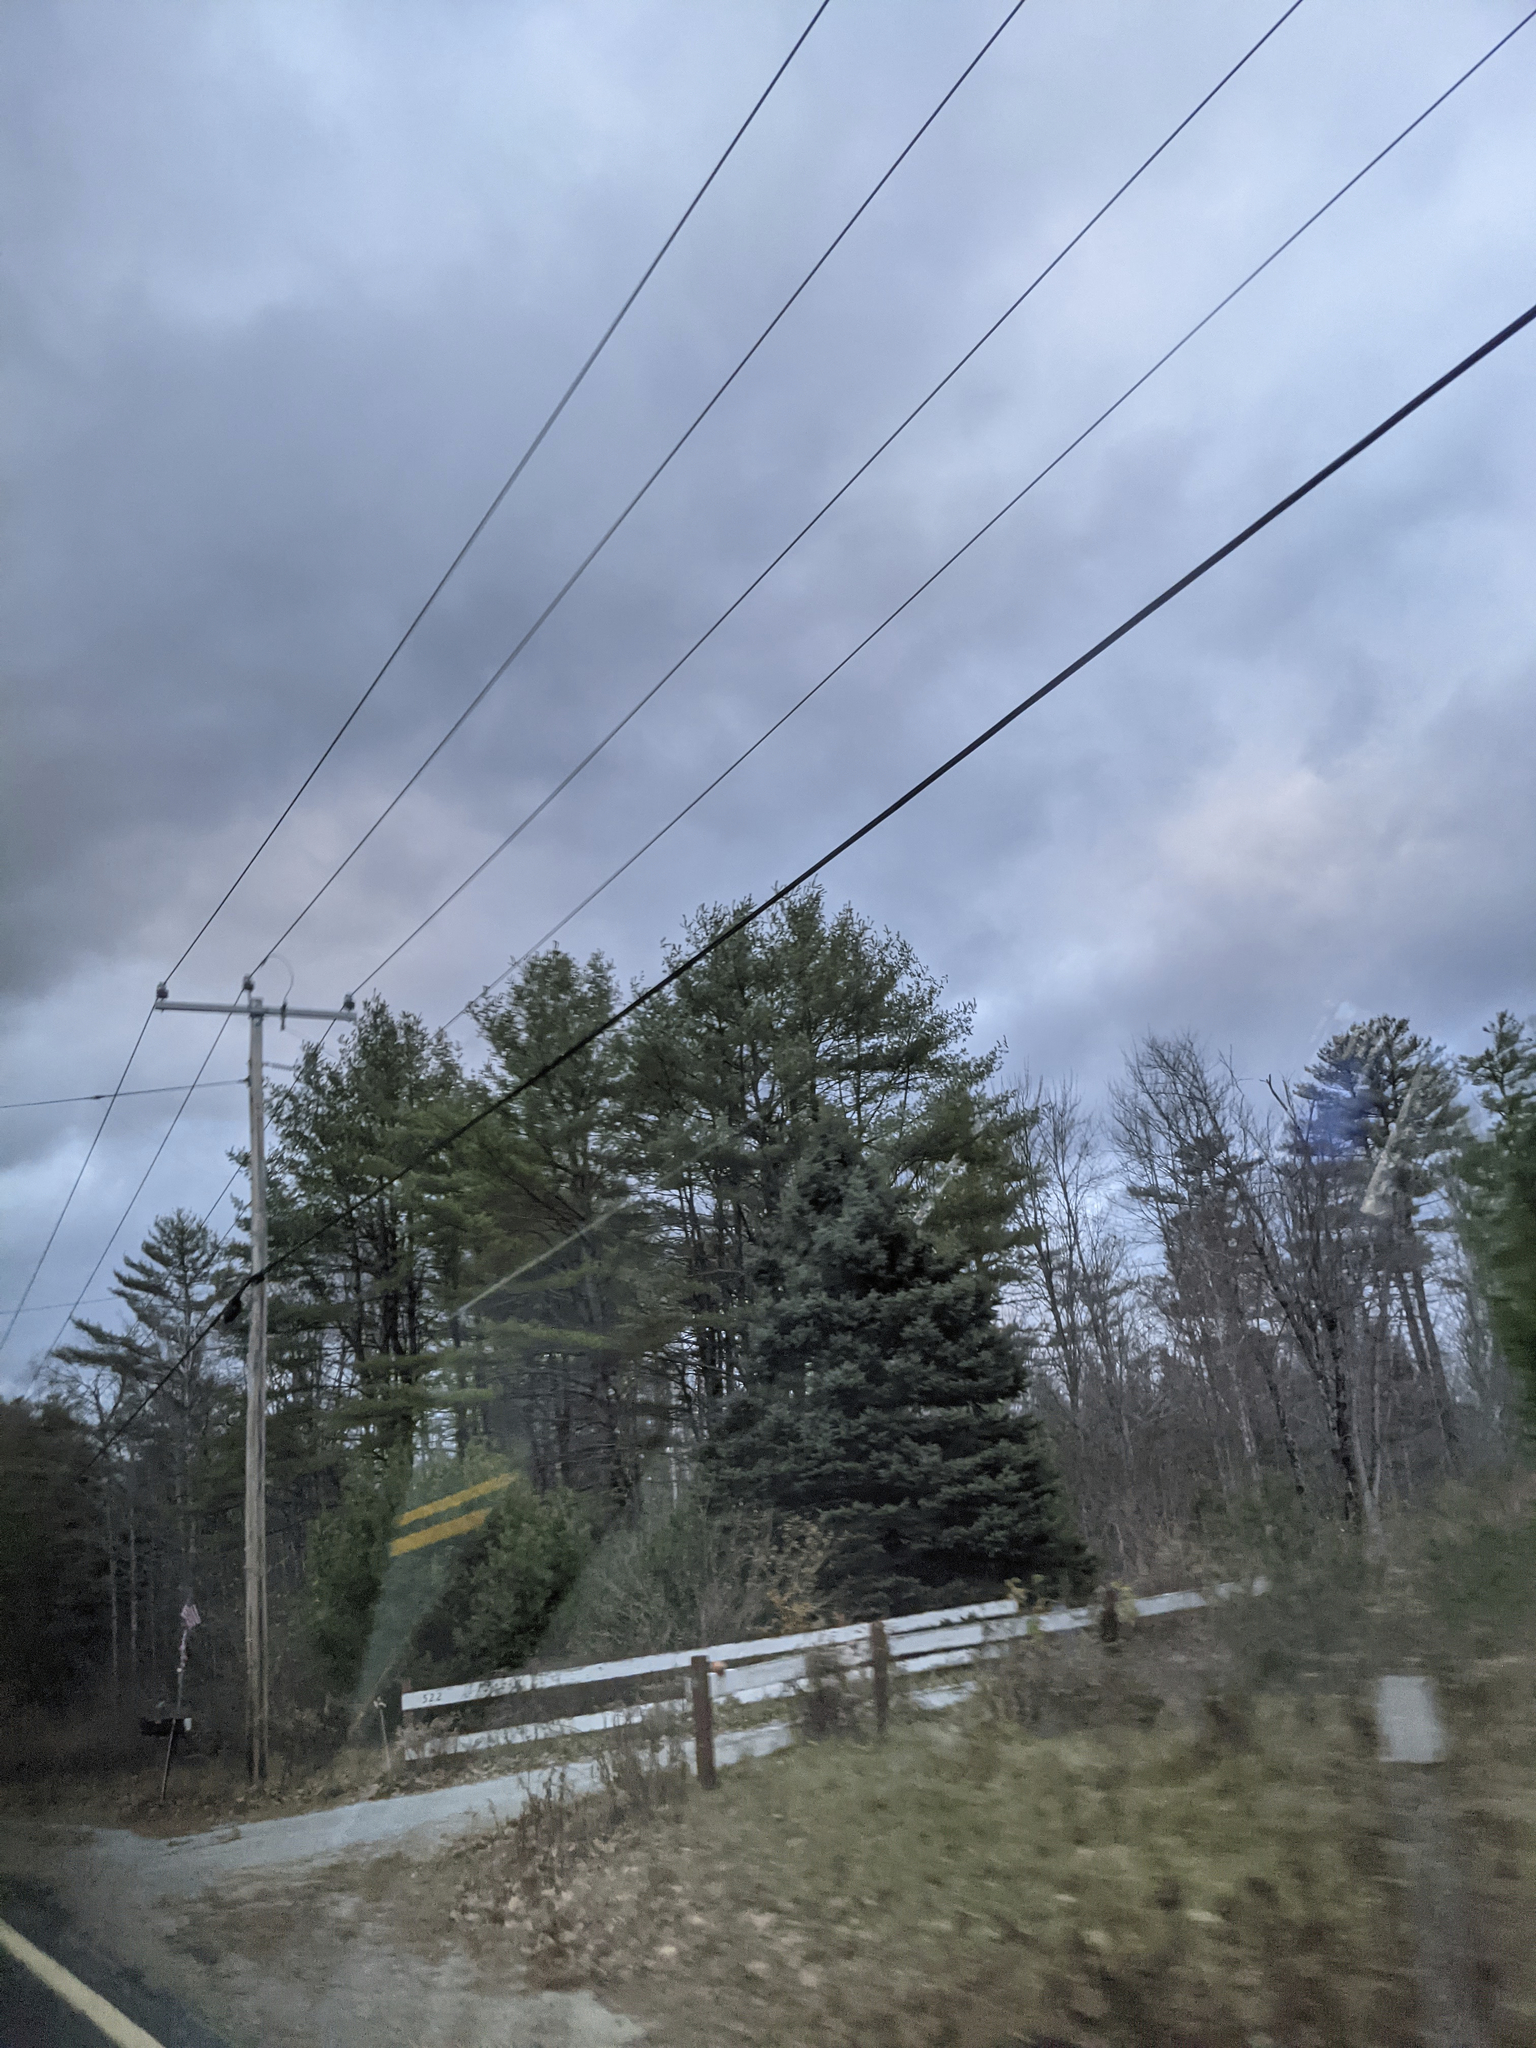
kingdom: Plantae
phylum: Tracheophyta
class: Pinopsida
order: Pinales
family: Pinaceae
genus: Pinus
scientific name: Pinus strobus
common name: Weymouth pine
